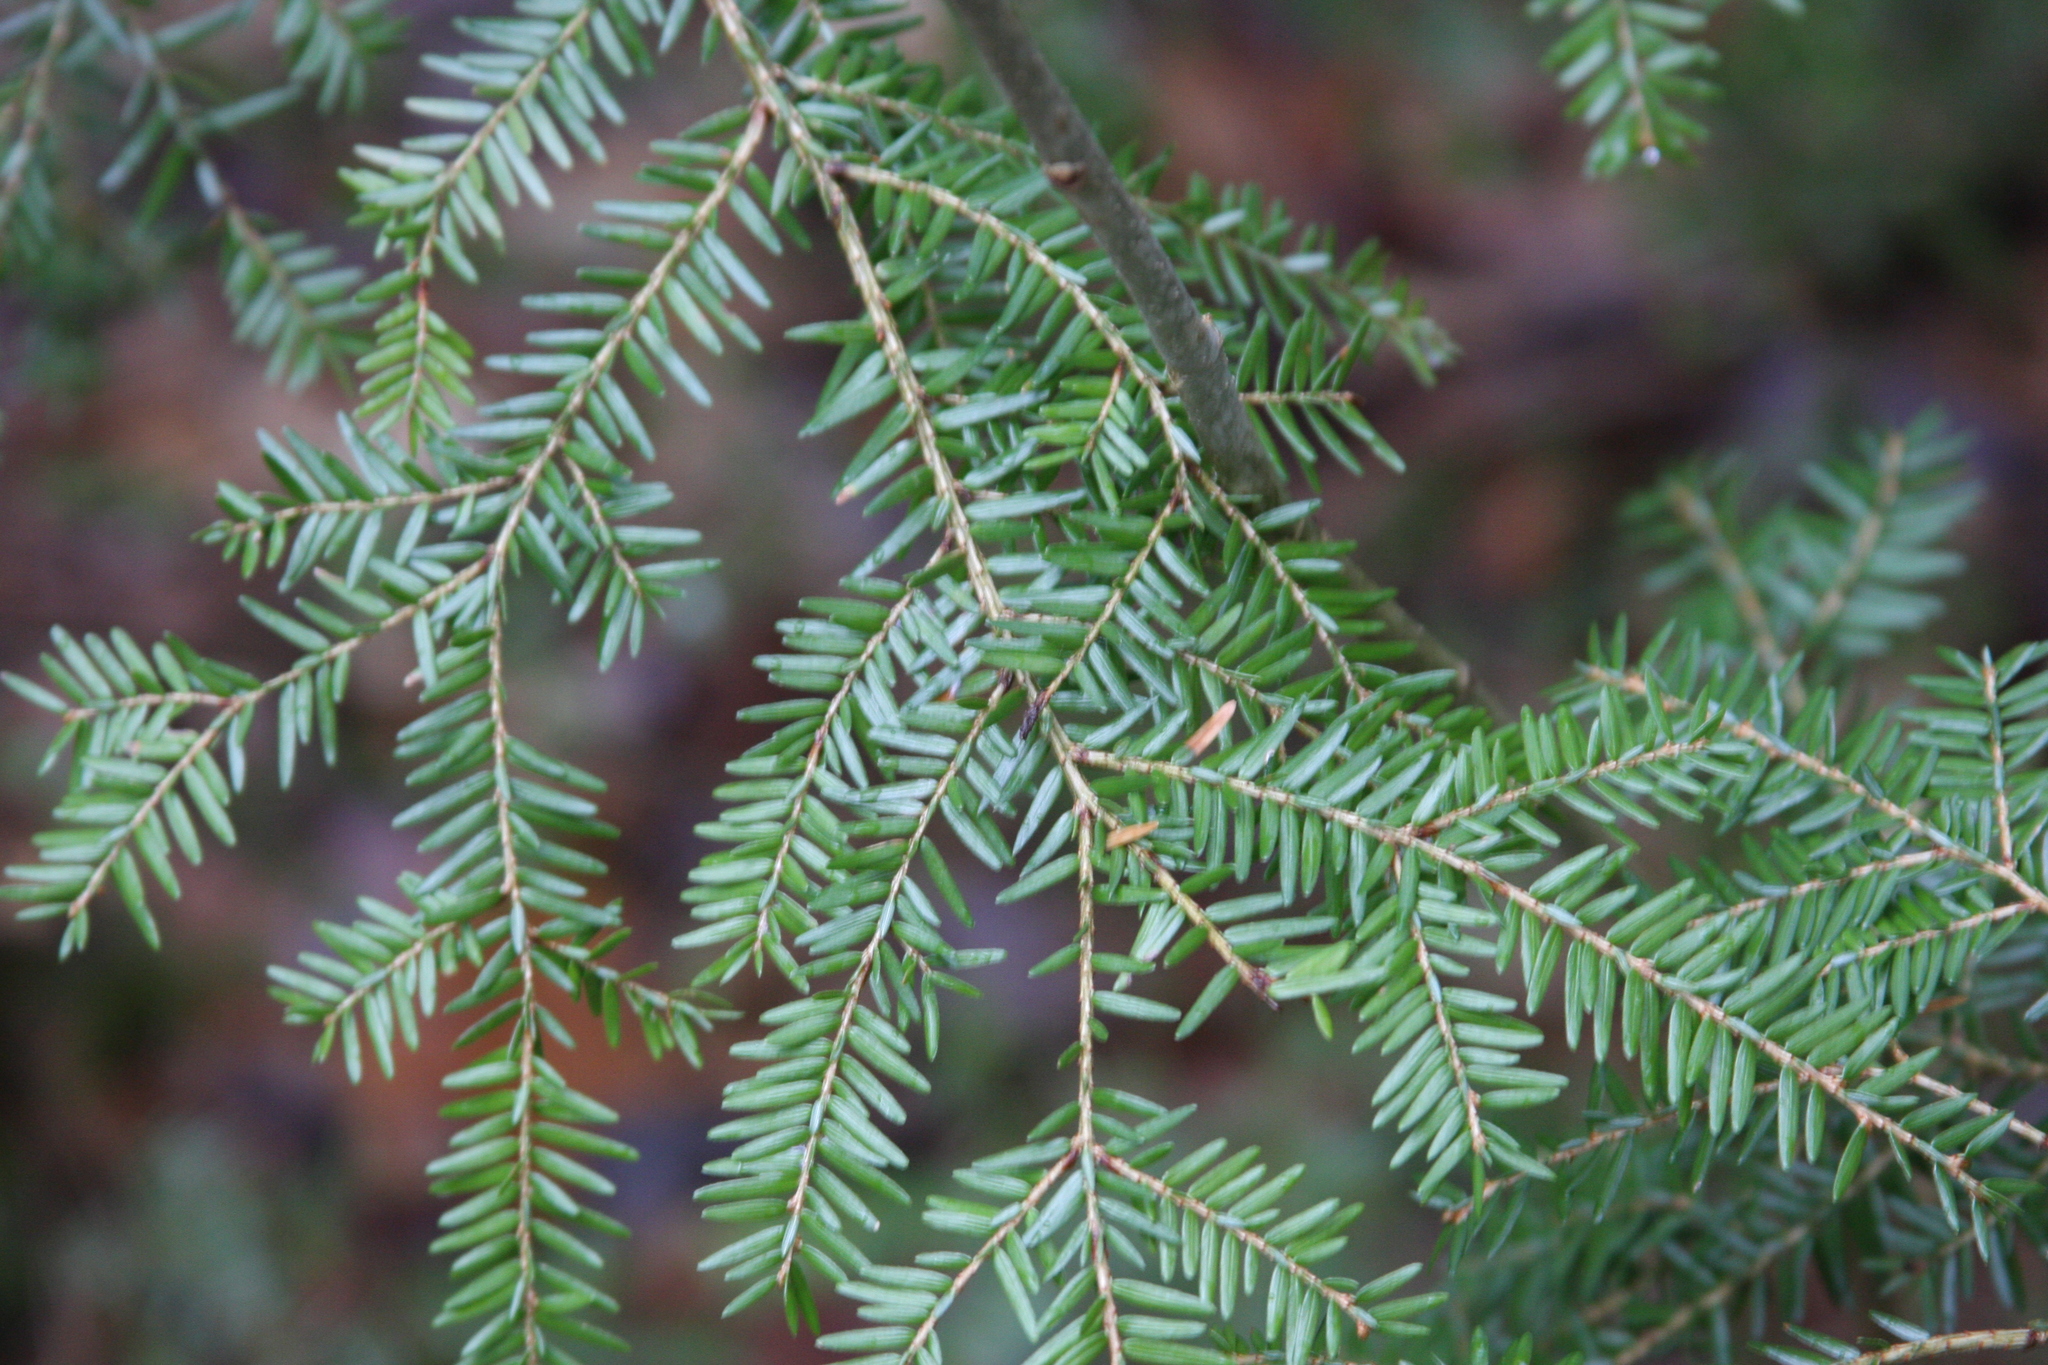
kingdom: Plantae
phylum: Tracheophyta
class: Pinopsida
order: Pinales
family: Pinaceae
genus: Tsuga
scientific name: Tsuga canadensis
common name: Eastern hemlock
